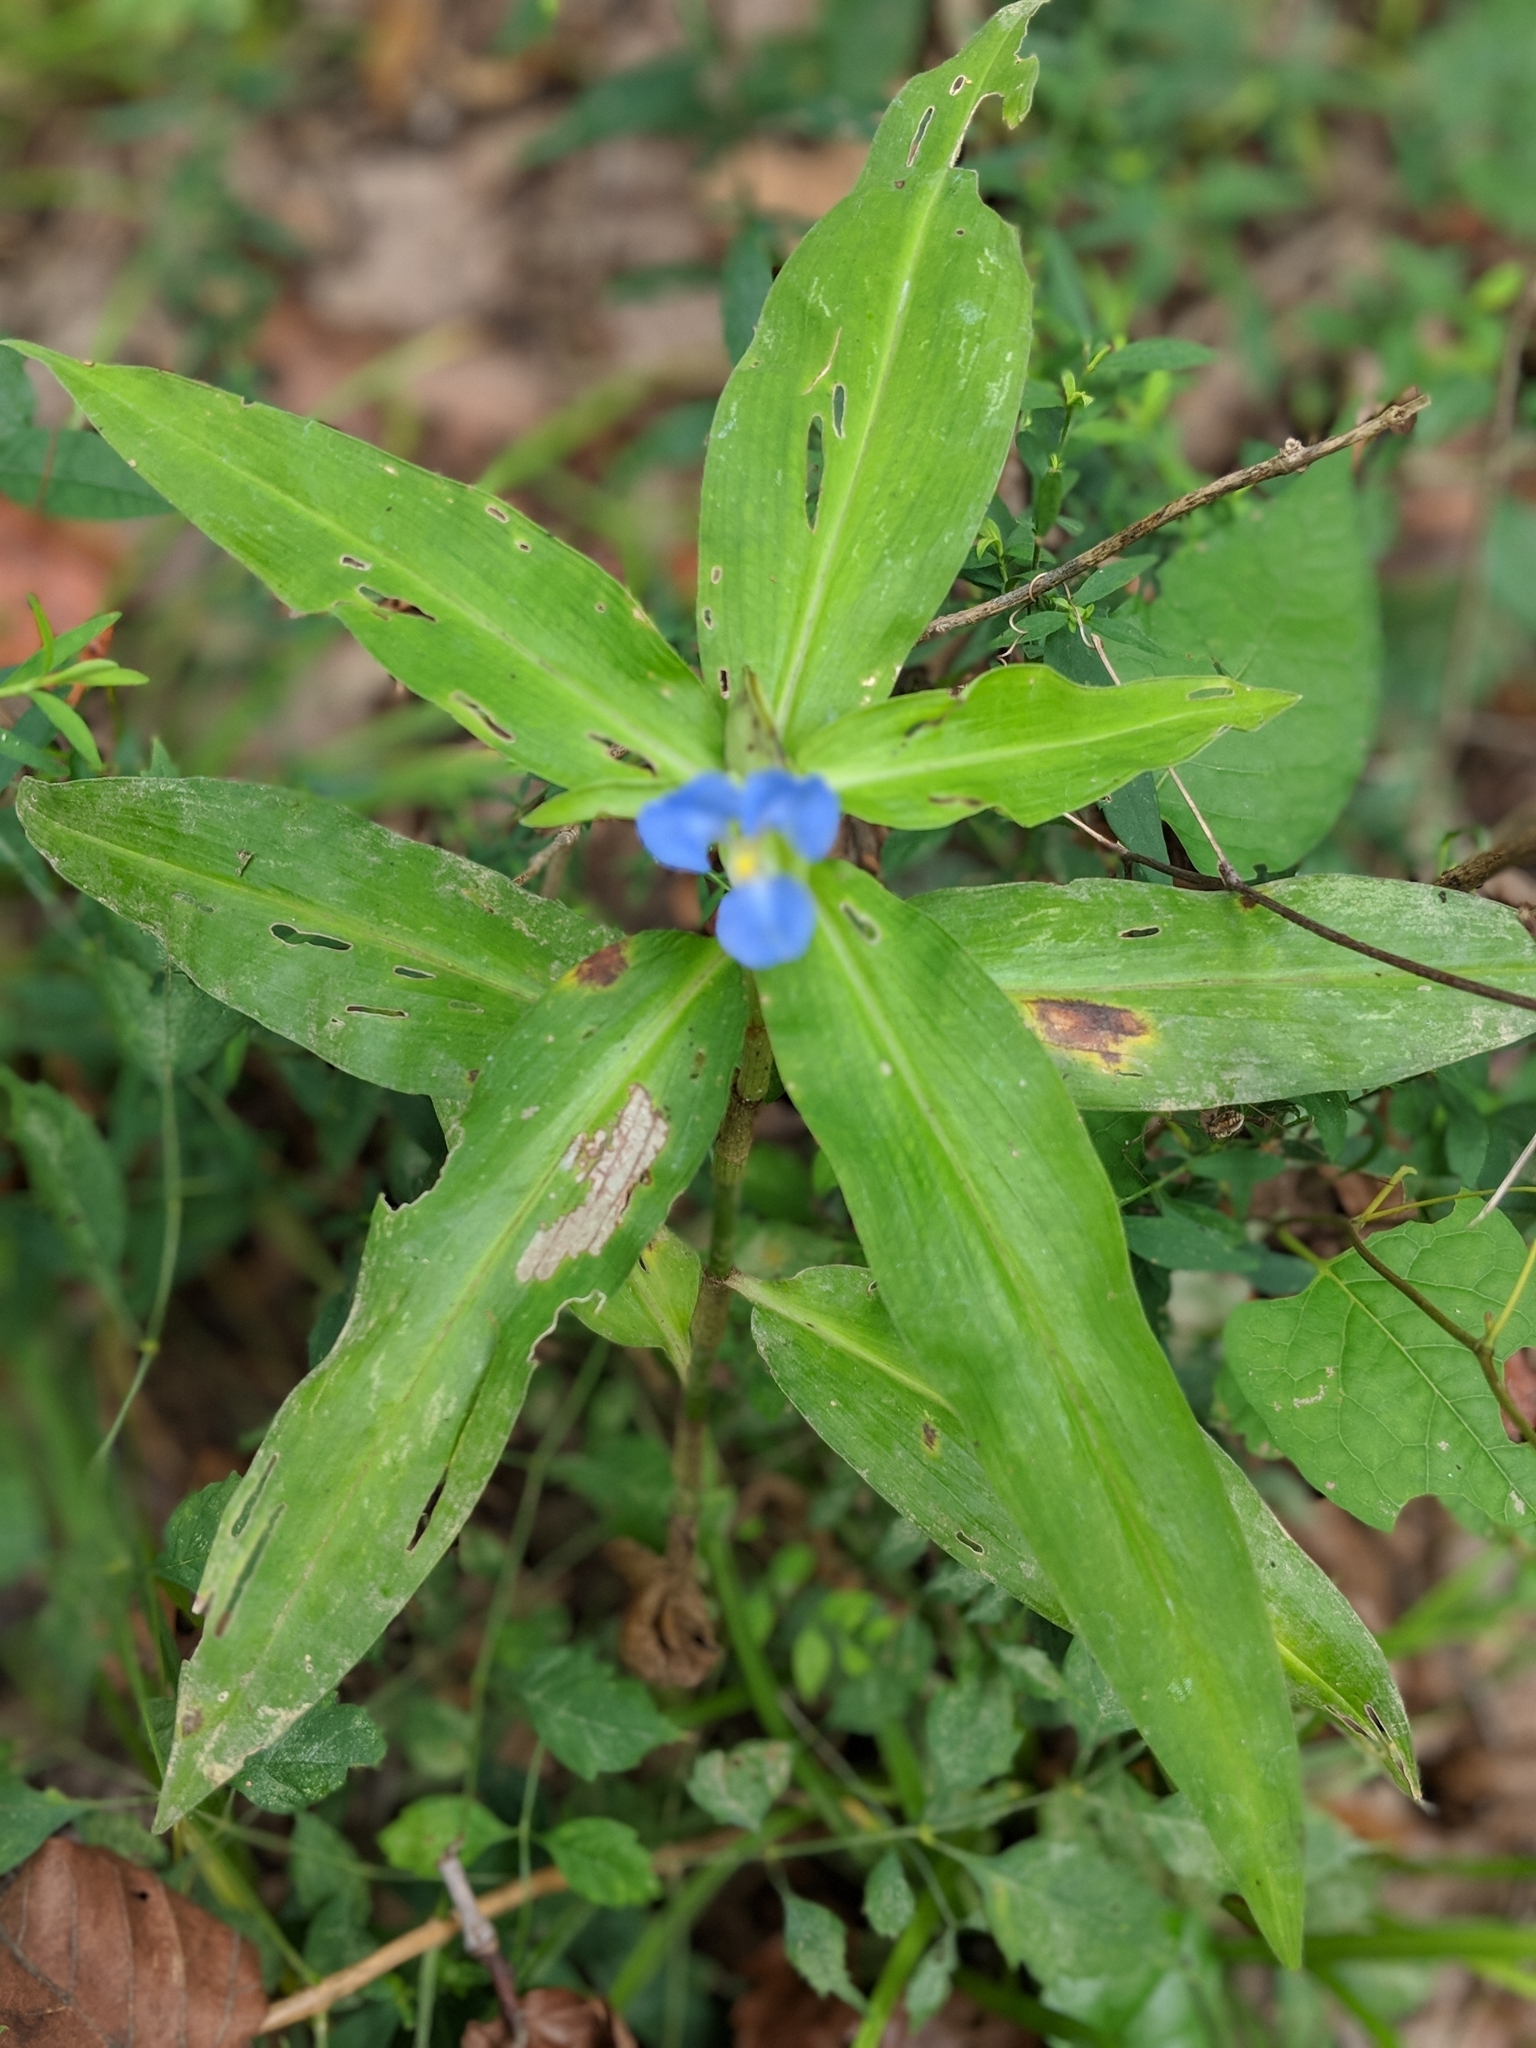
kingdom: Plantae
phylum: Tracheophyta
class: Liliopsida
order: Commelinales
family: Commelinaceae
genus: Commelina
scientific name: Commelina virginica
